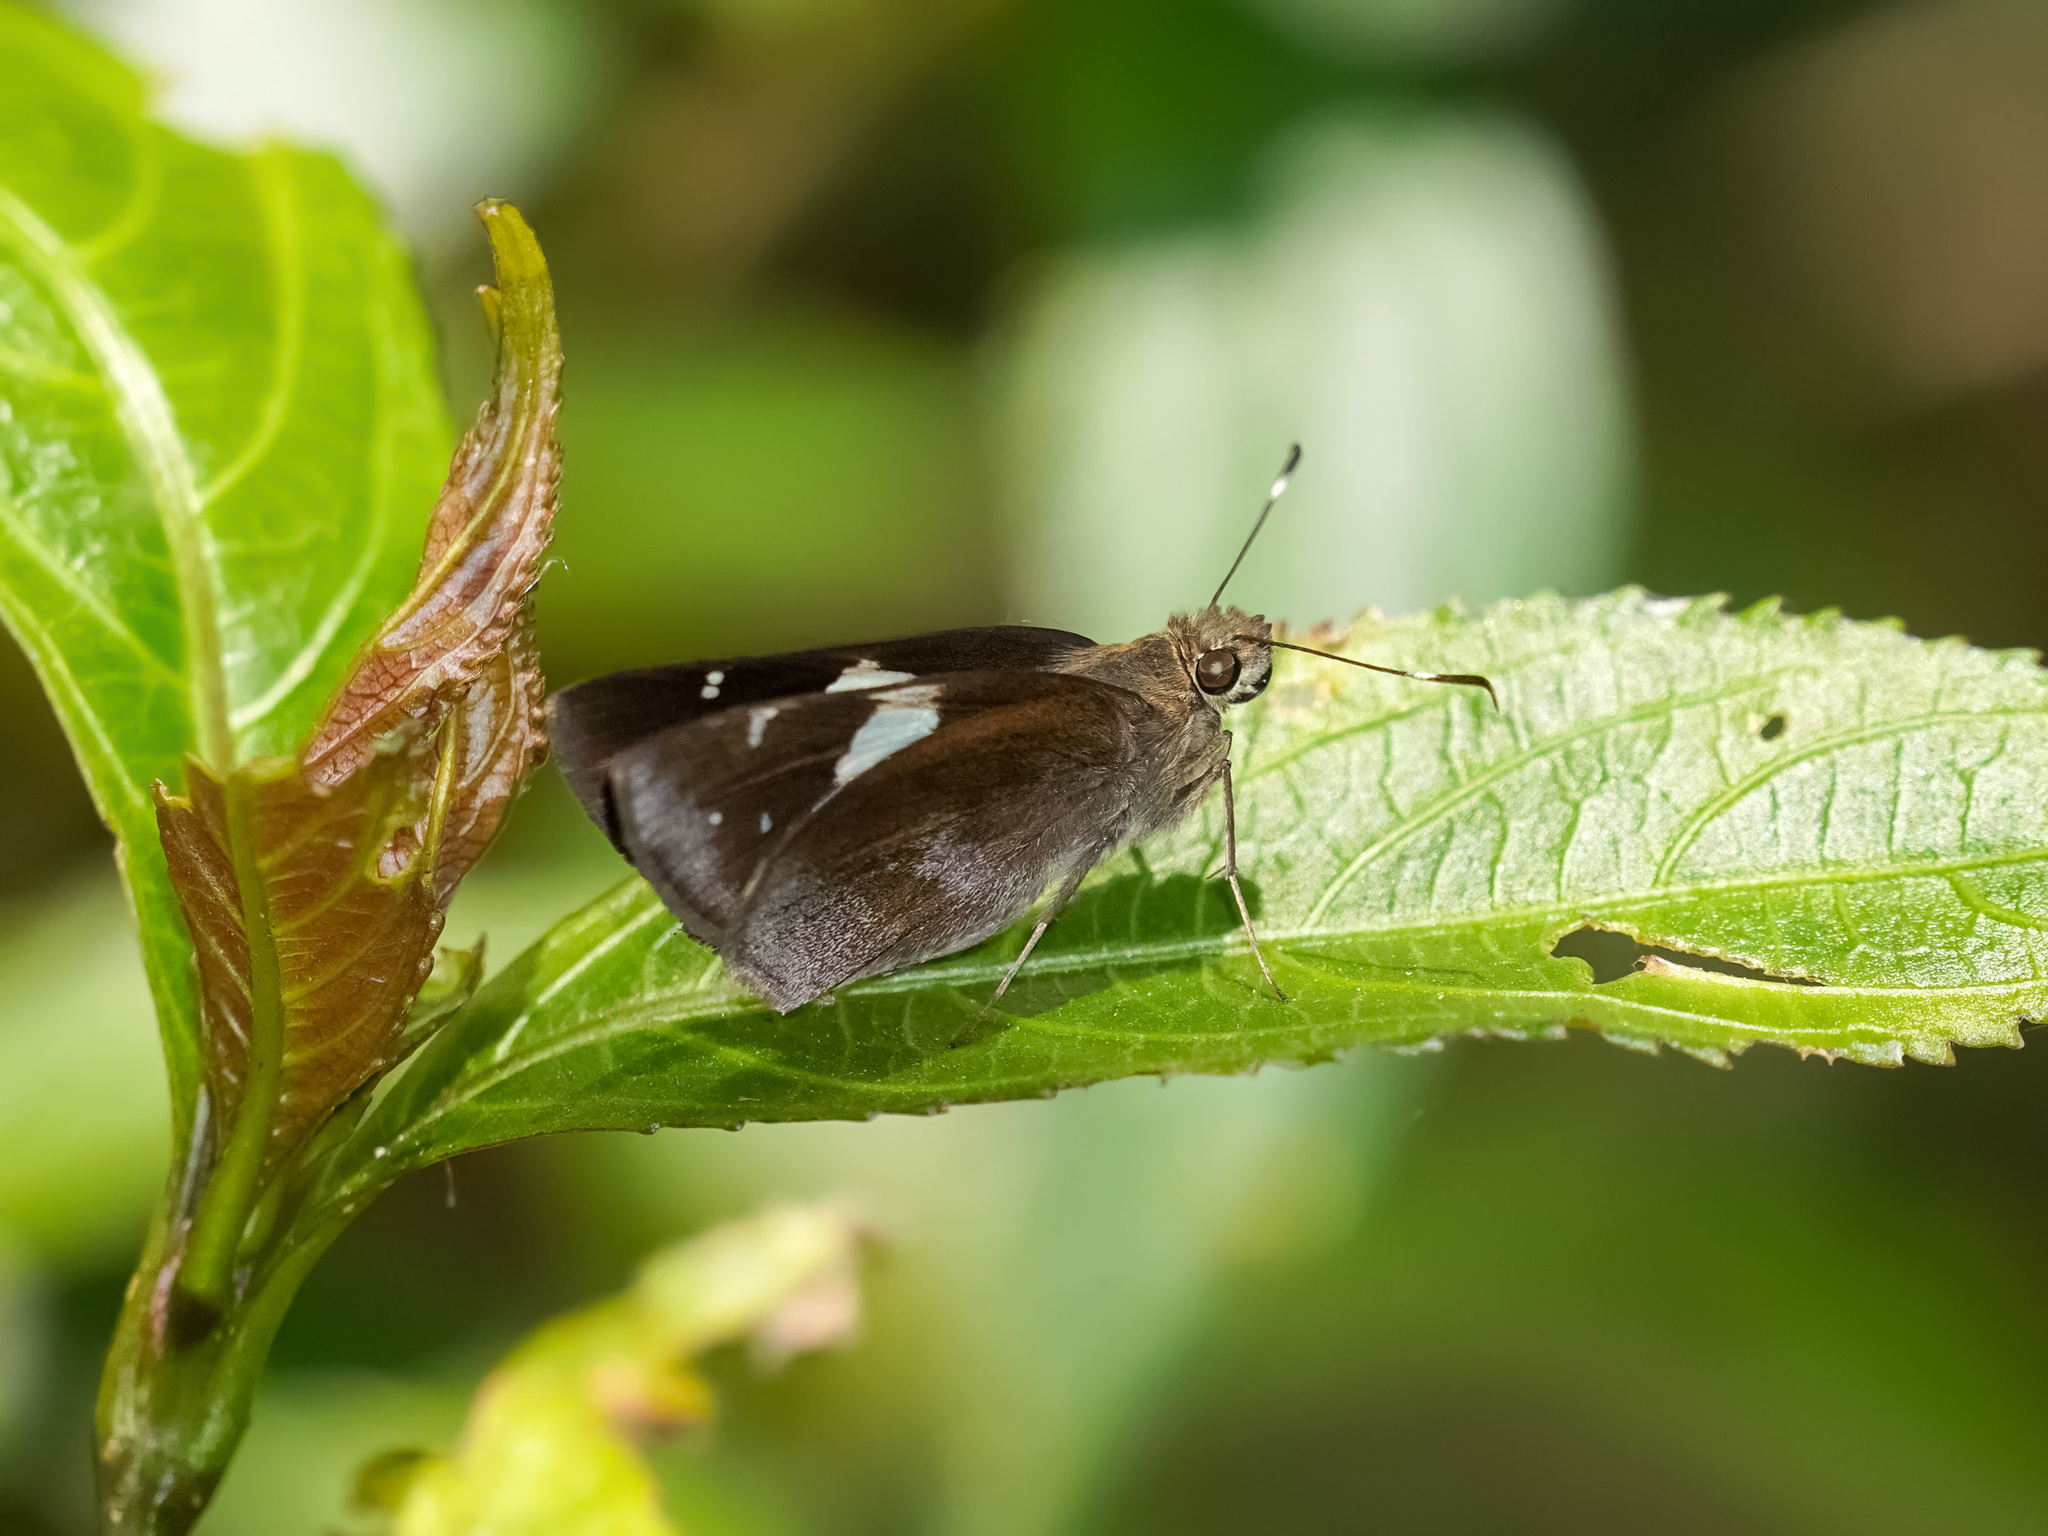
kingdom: Animalia
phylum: Arthropoda
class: Insecta
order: Lepidoptera
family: Hesperiidae
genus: Notocrypta
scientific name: Notocrypta feisthamelii
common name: Spotted demon
